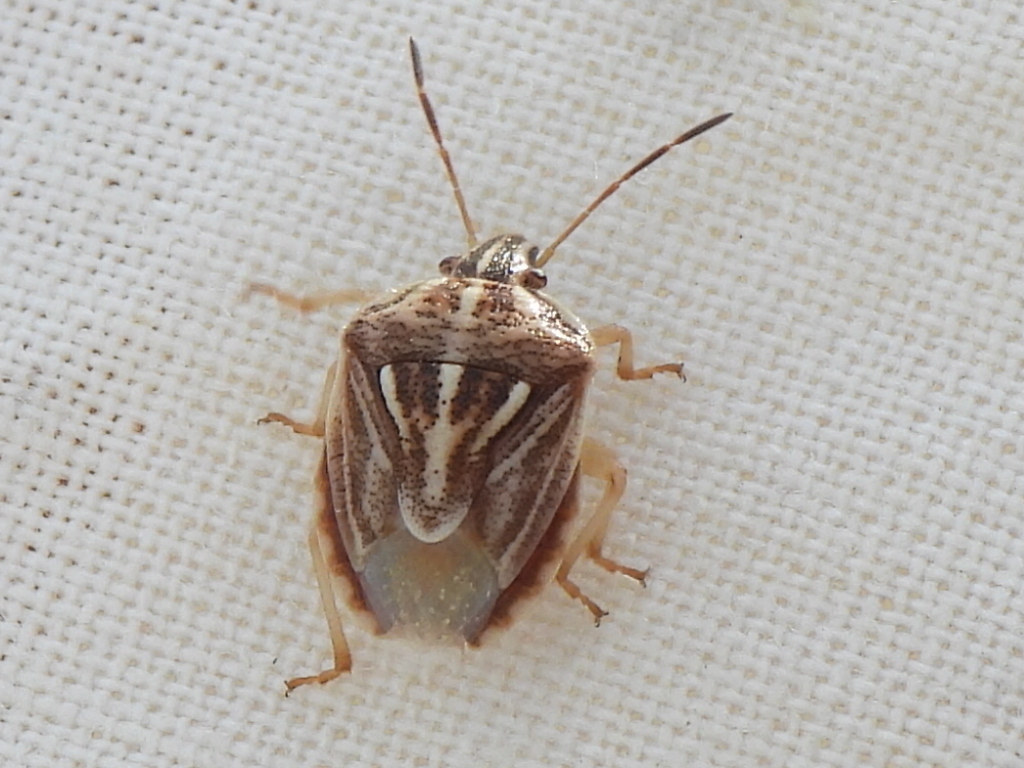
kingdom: Animalia
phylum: Arthropoda
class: Insecta
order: Hemiptera
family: Pentatomidae
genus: Trichopepla
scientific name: Trichopepla semivittata
